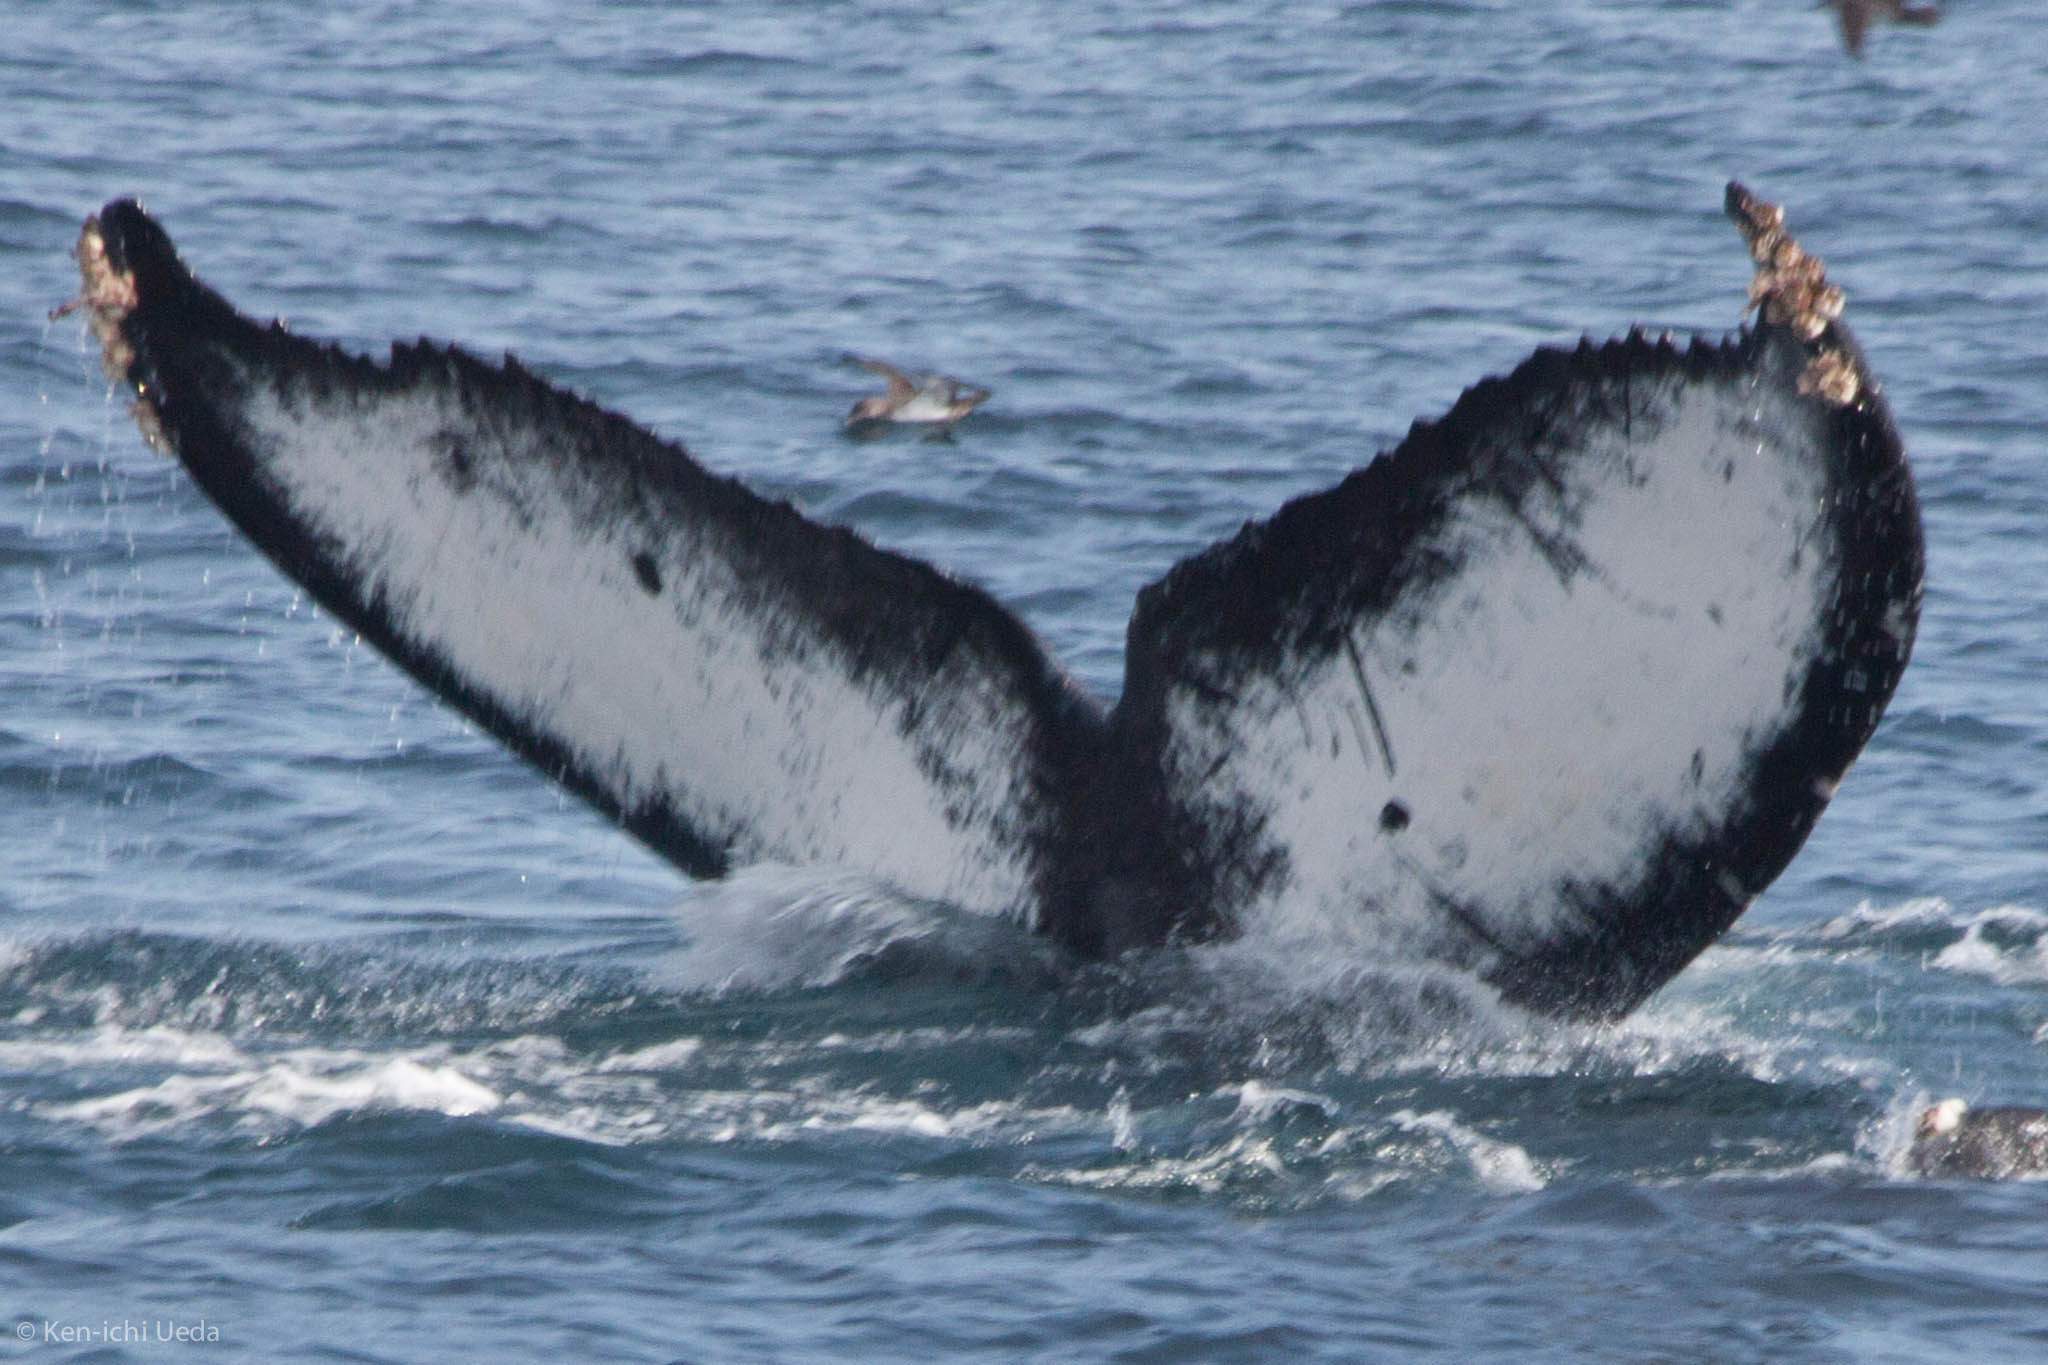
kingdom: Animalia
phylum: Chordata
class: Mammalia
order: Cetacea
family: Balaenopteridae
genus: Megaptera
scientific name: Megaptera novaeangliae
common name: Humpback whale
